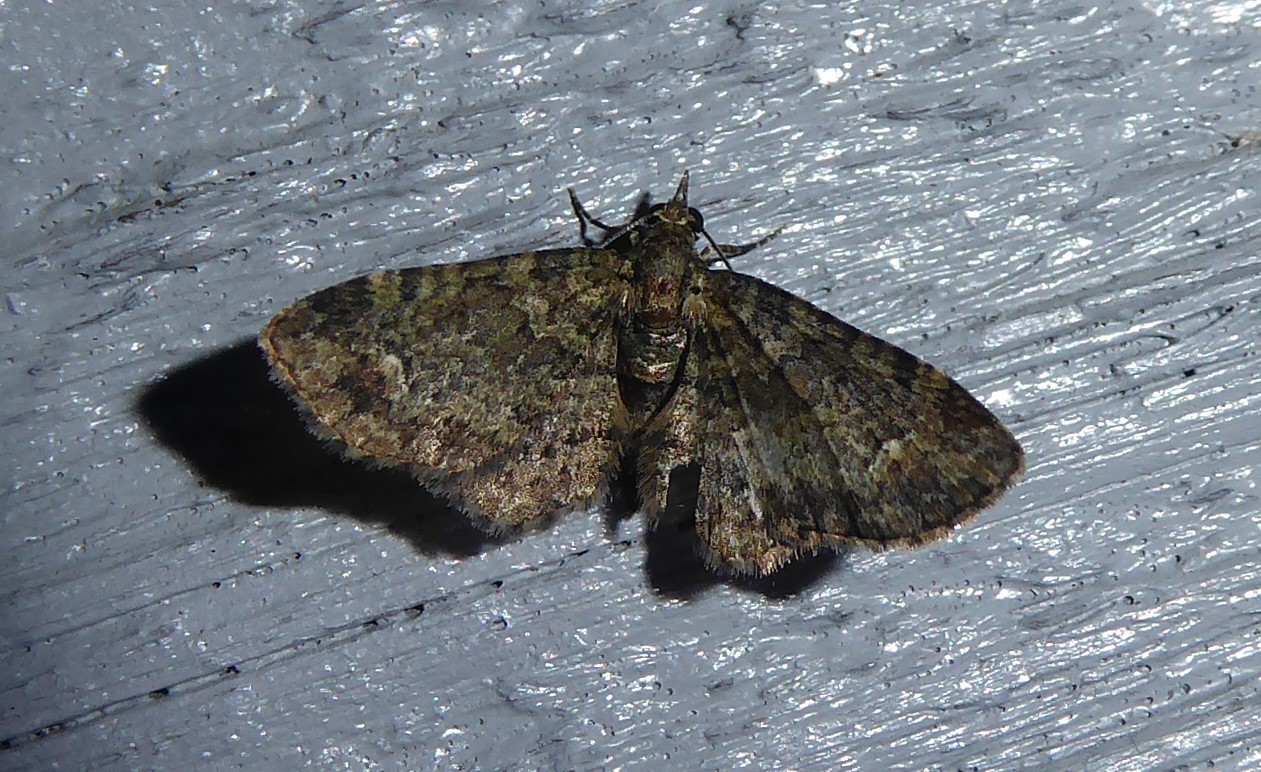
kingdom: Animalia
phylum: Arthropoda
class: Insecta
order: Lepidoptera
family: Geometridae
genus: Idaea
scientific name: Idaea mutanda
